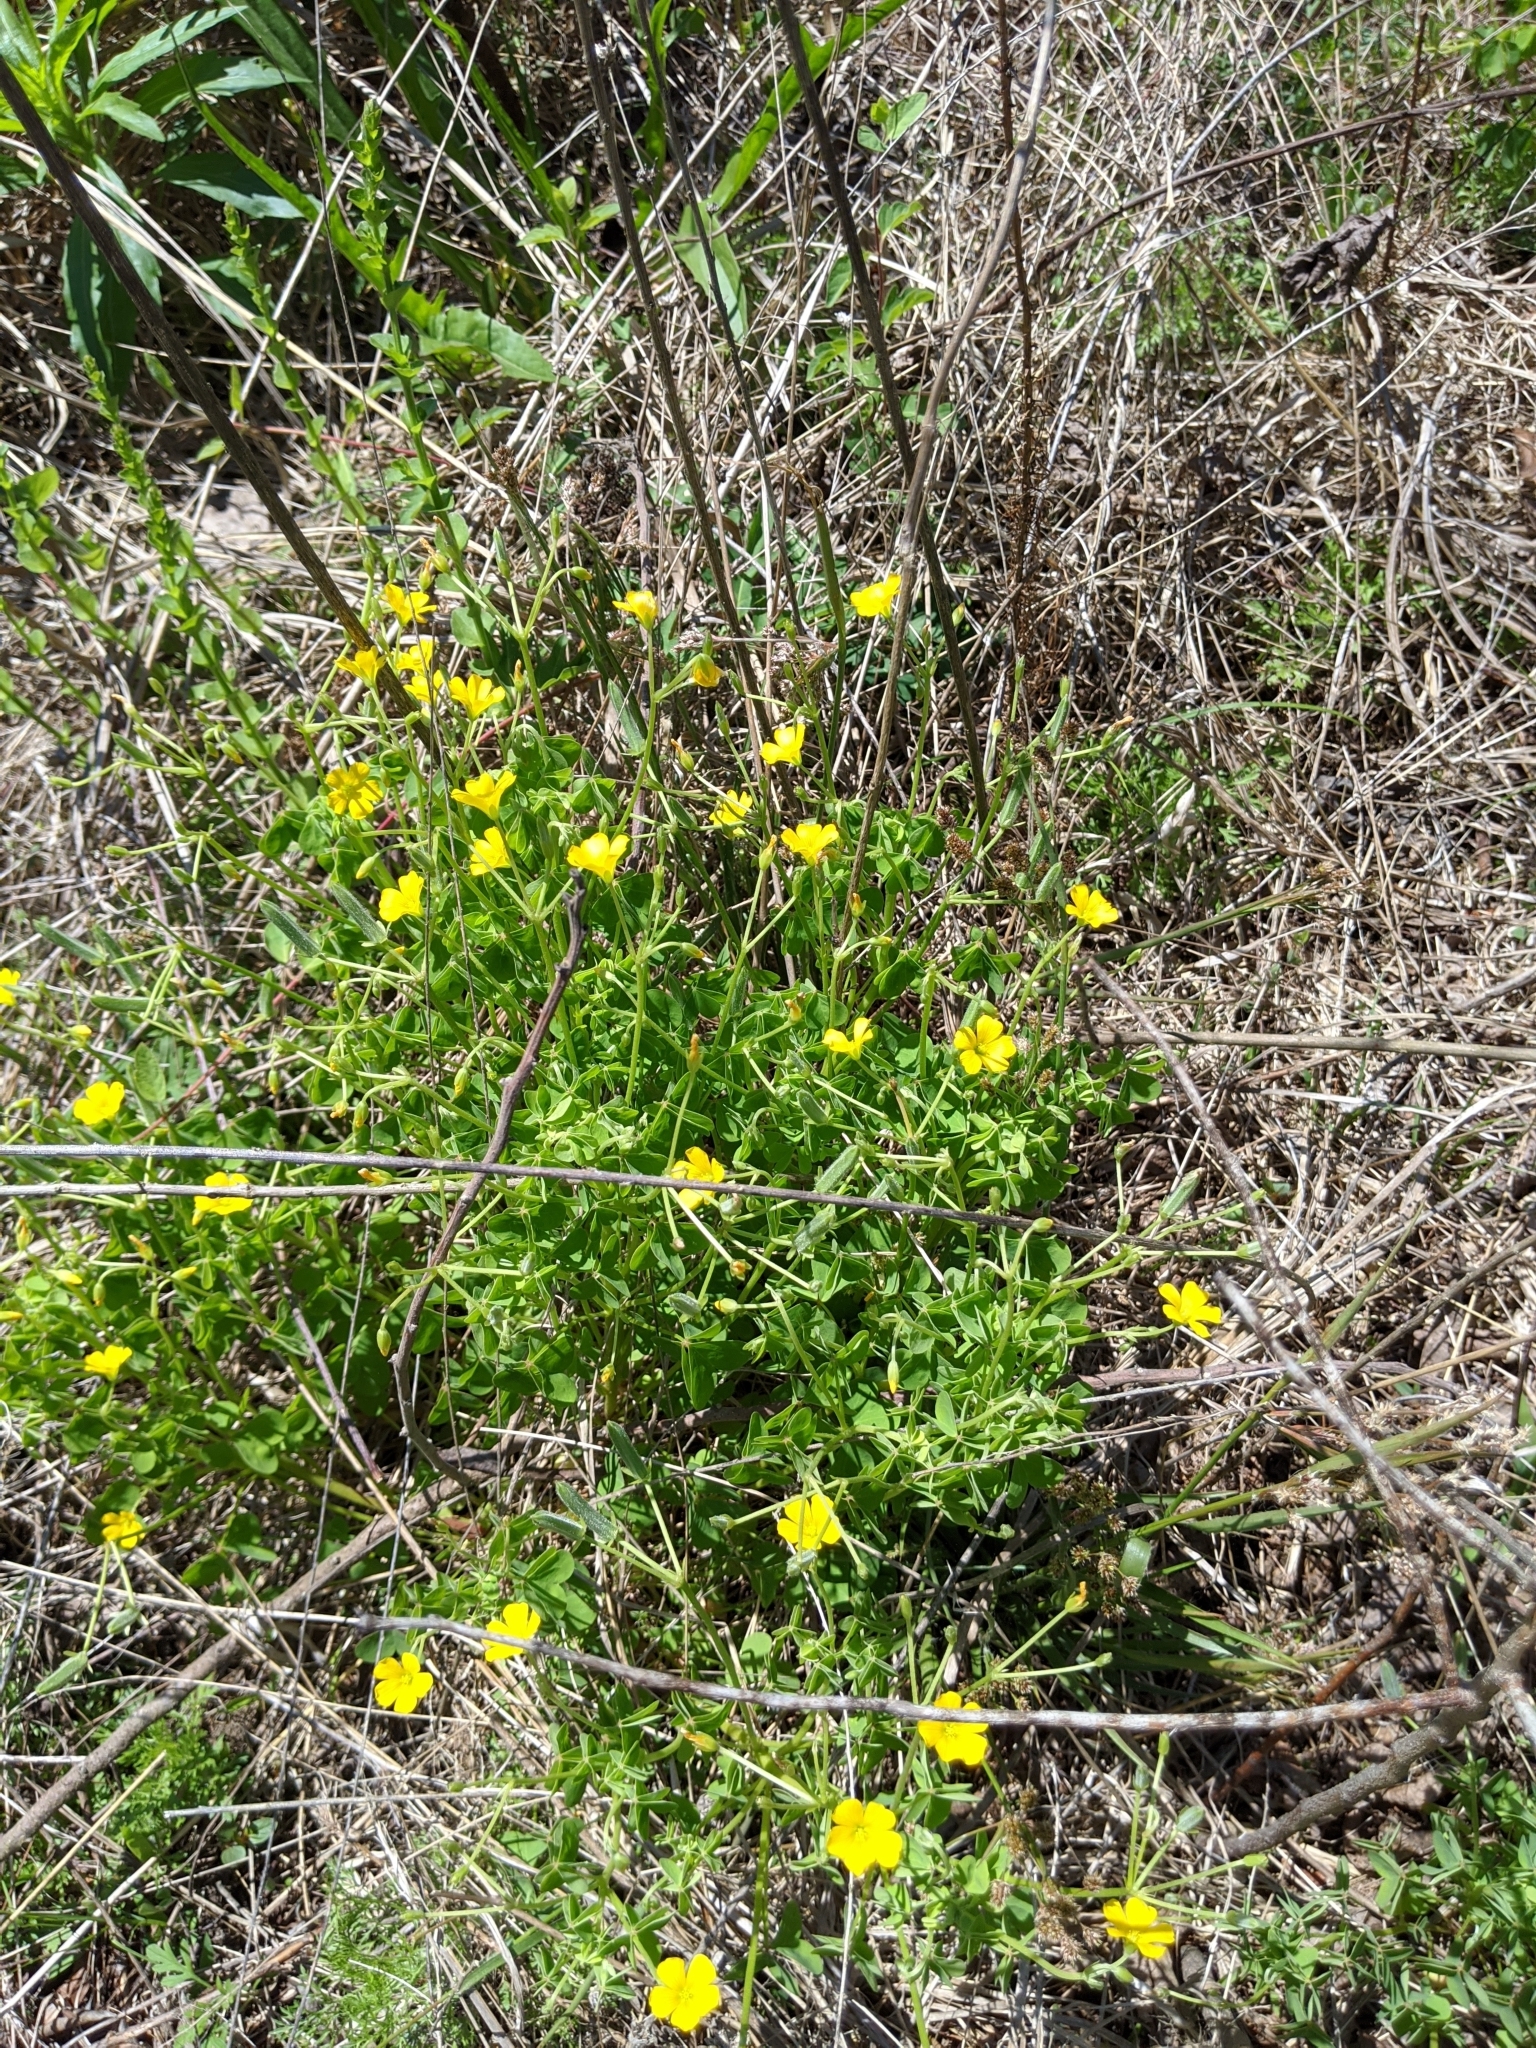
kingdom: Plantae
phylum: Tracheophyta
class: Magnoliopsida
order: Oxalidales
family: Oxalidaceae
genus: Oxalis
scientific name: Oxalis dillenii
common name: Sussex yellow-sorrel
